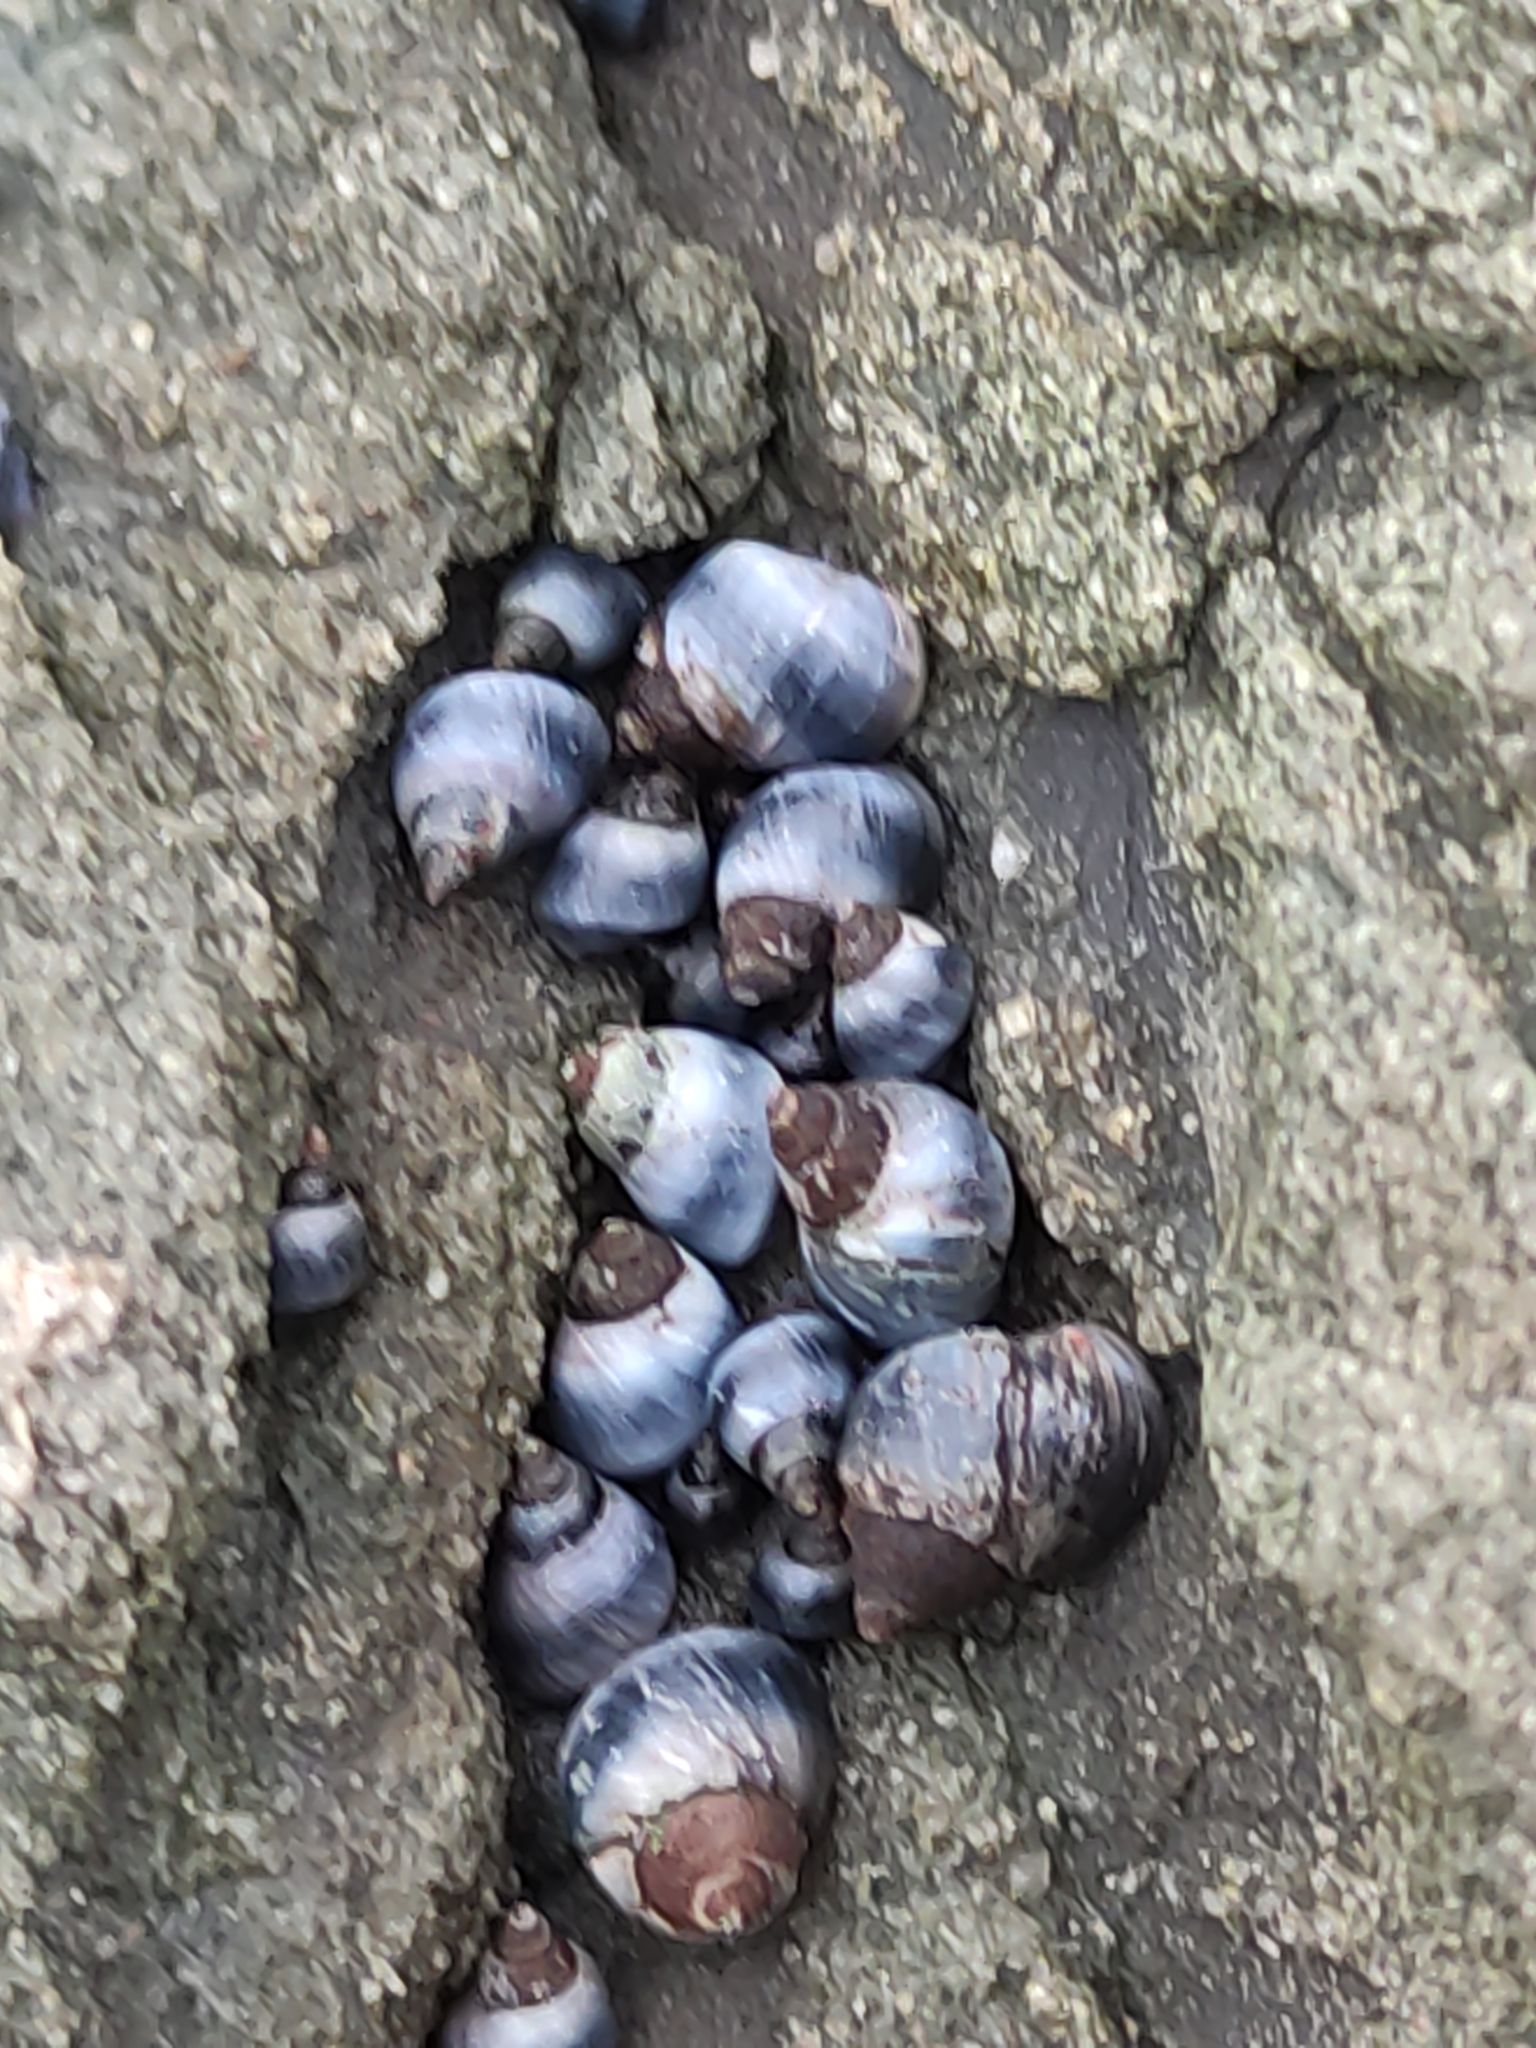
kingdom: Animalia
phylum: Mollusca
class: Gastropoda
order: Littorinimorpha
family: Littorinidae
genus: Austrolittorina
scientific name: Austrolittorina antipodum
